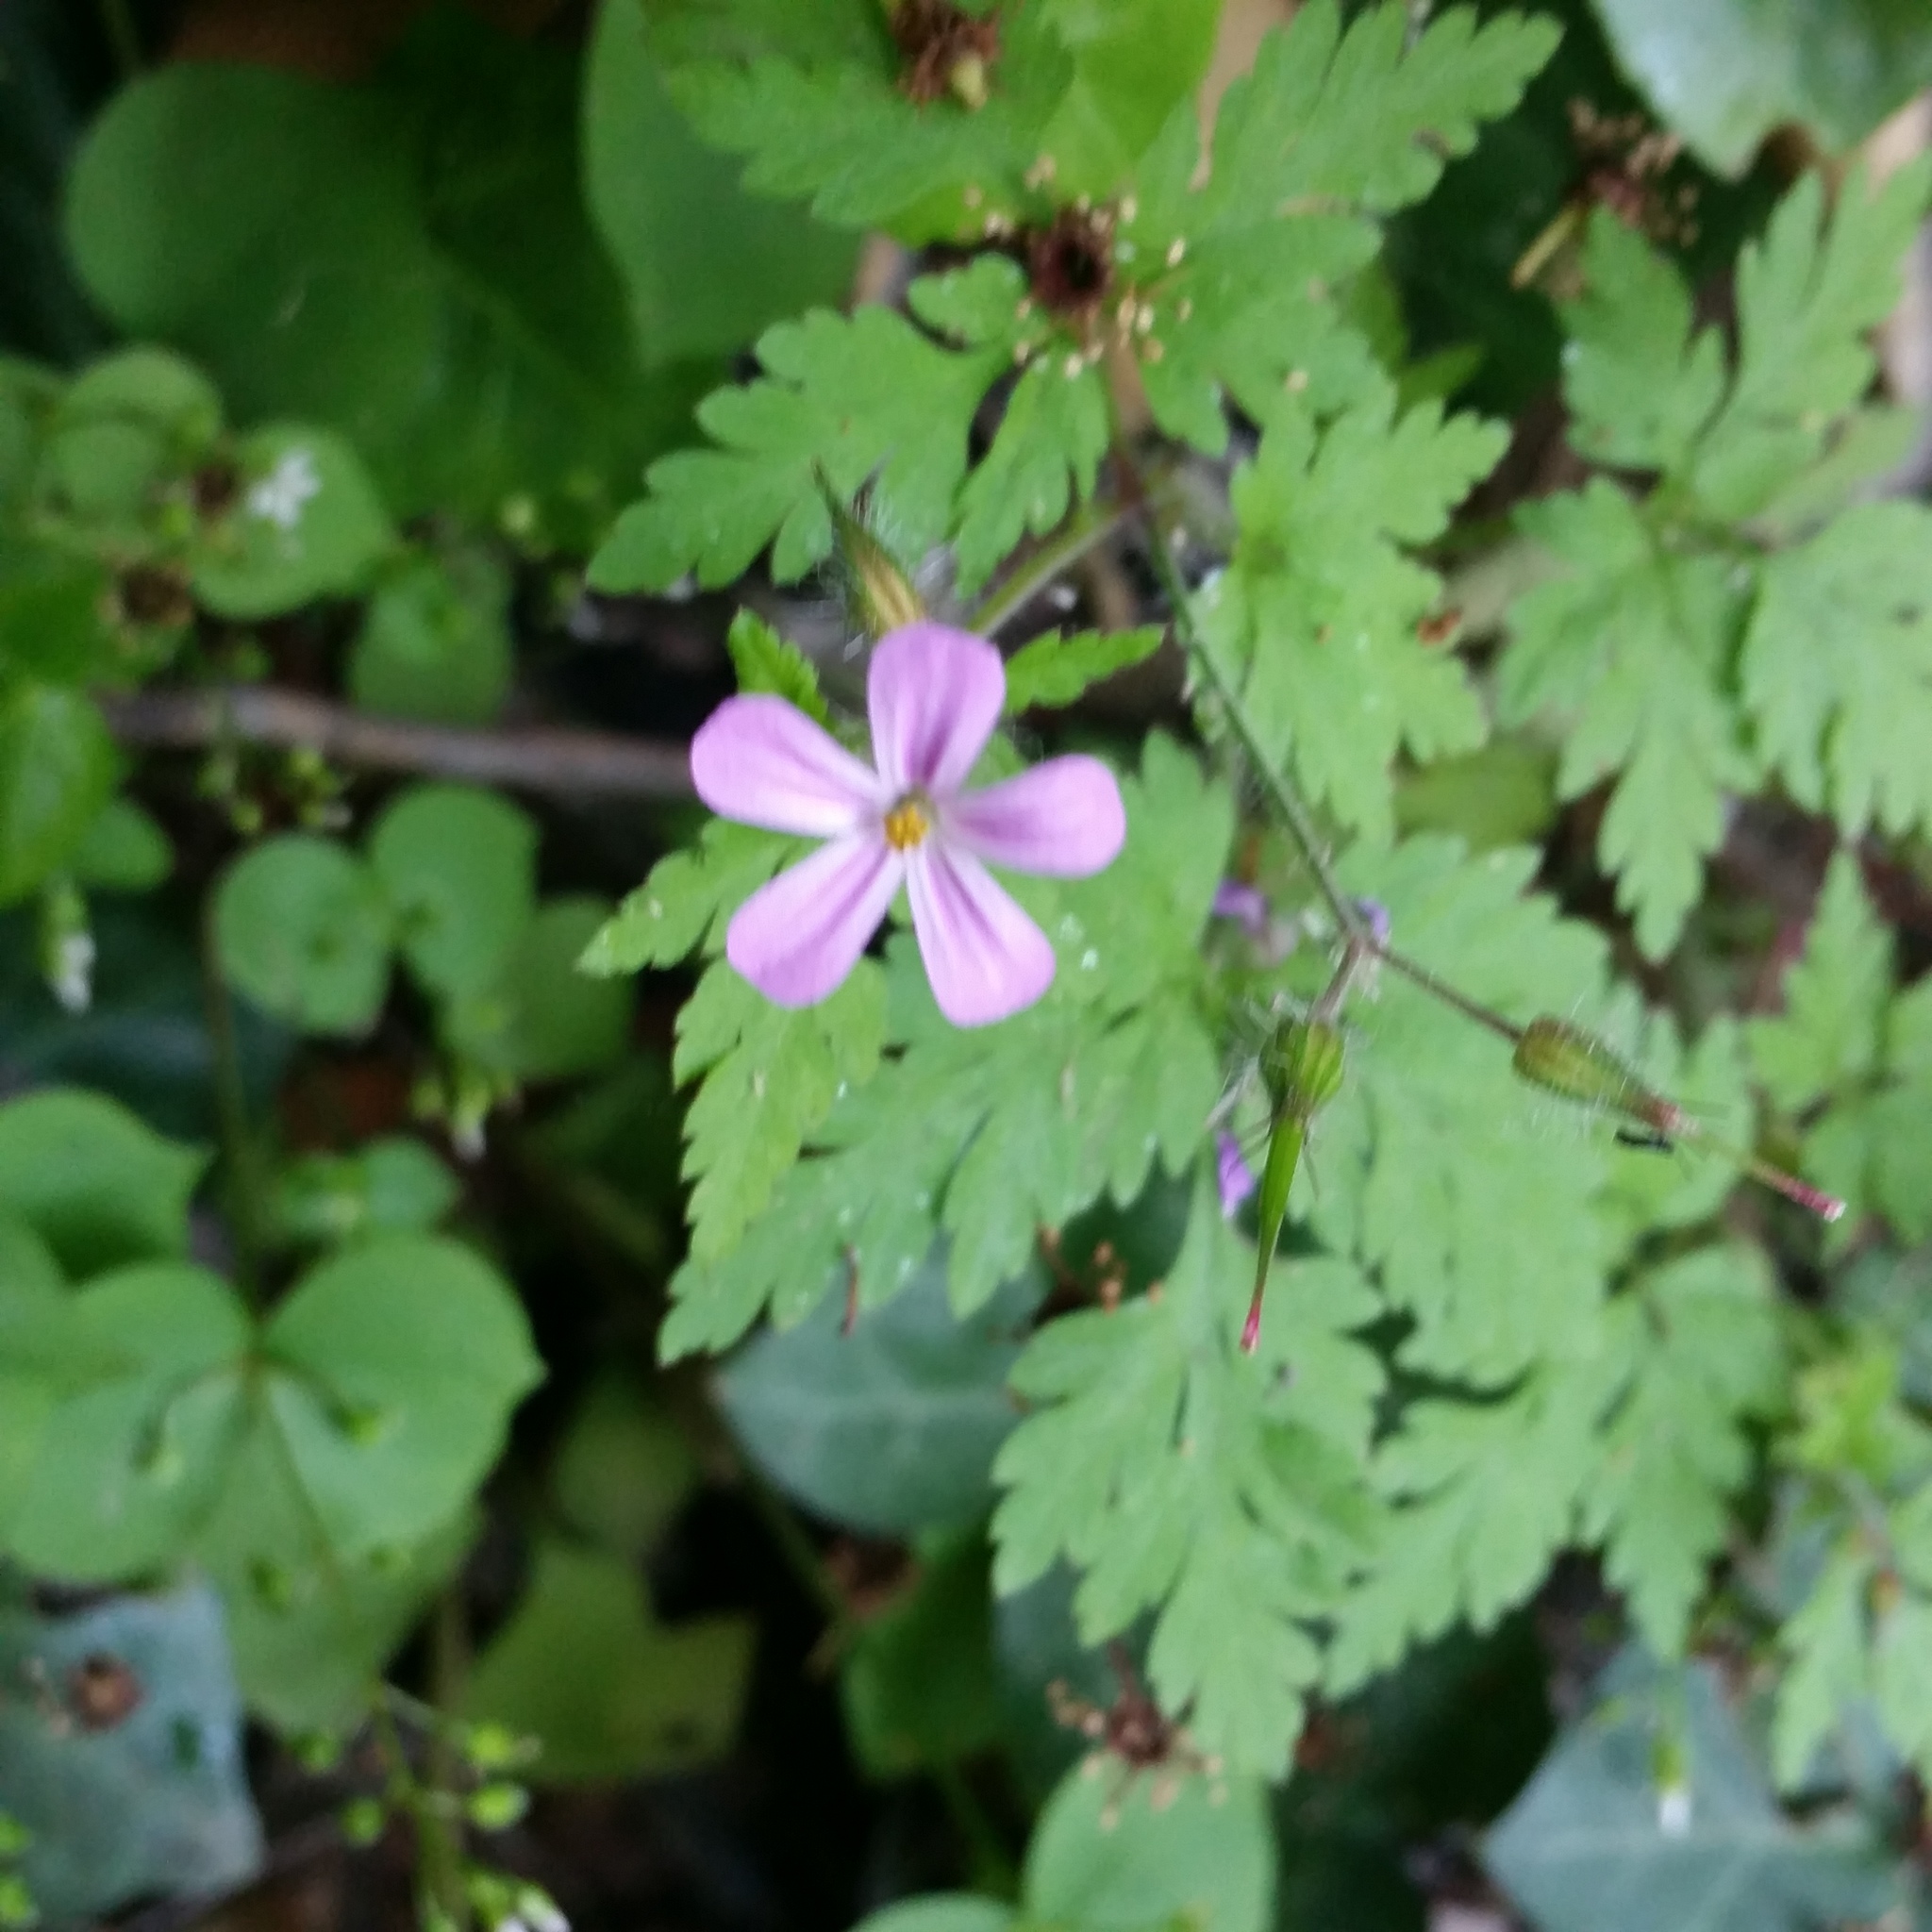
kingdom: Plantae
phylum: Tracheophyta
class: Magnoliopsida
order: Geraniales
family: Geraniaceae
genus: Geranium
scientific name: Geranium robertianum
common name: Herb-robert
